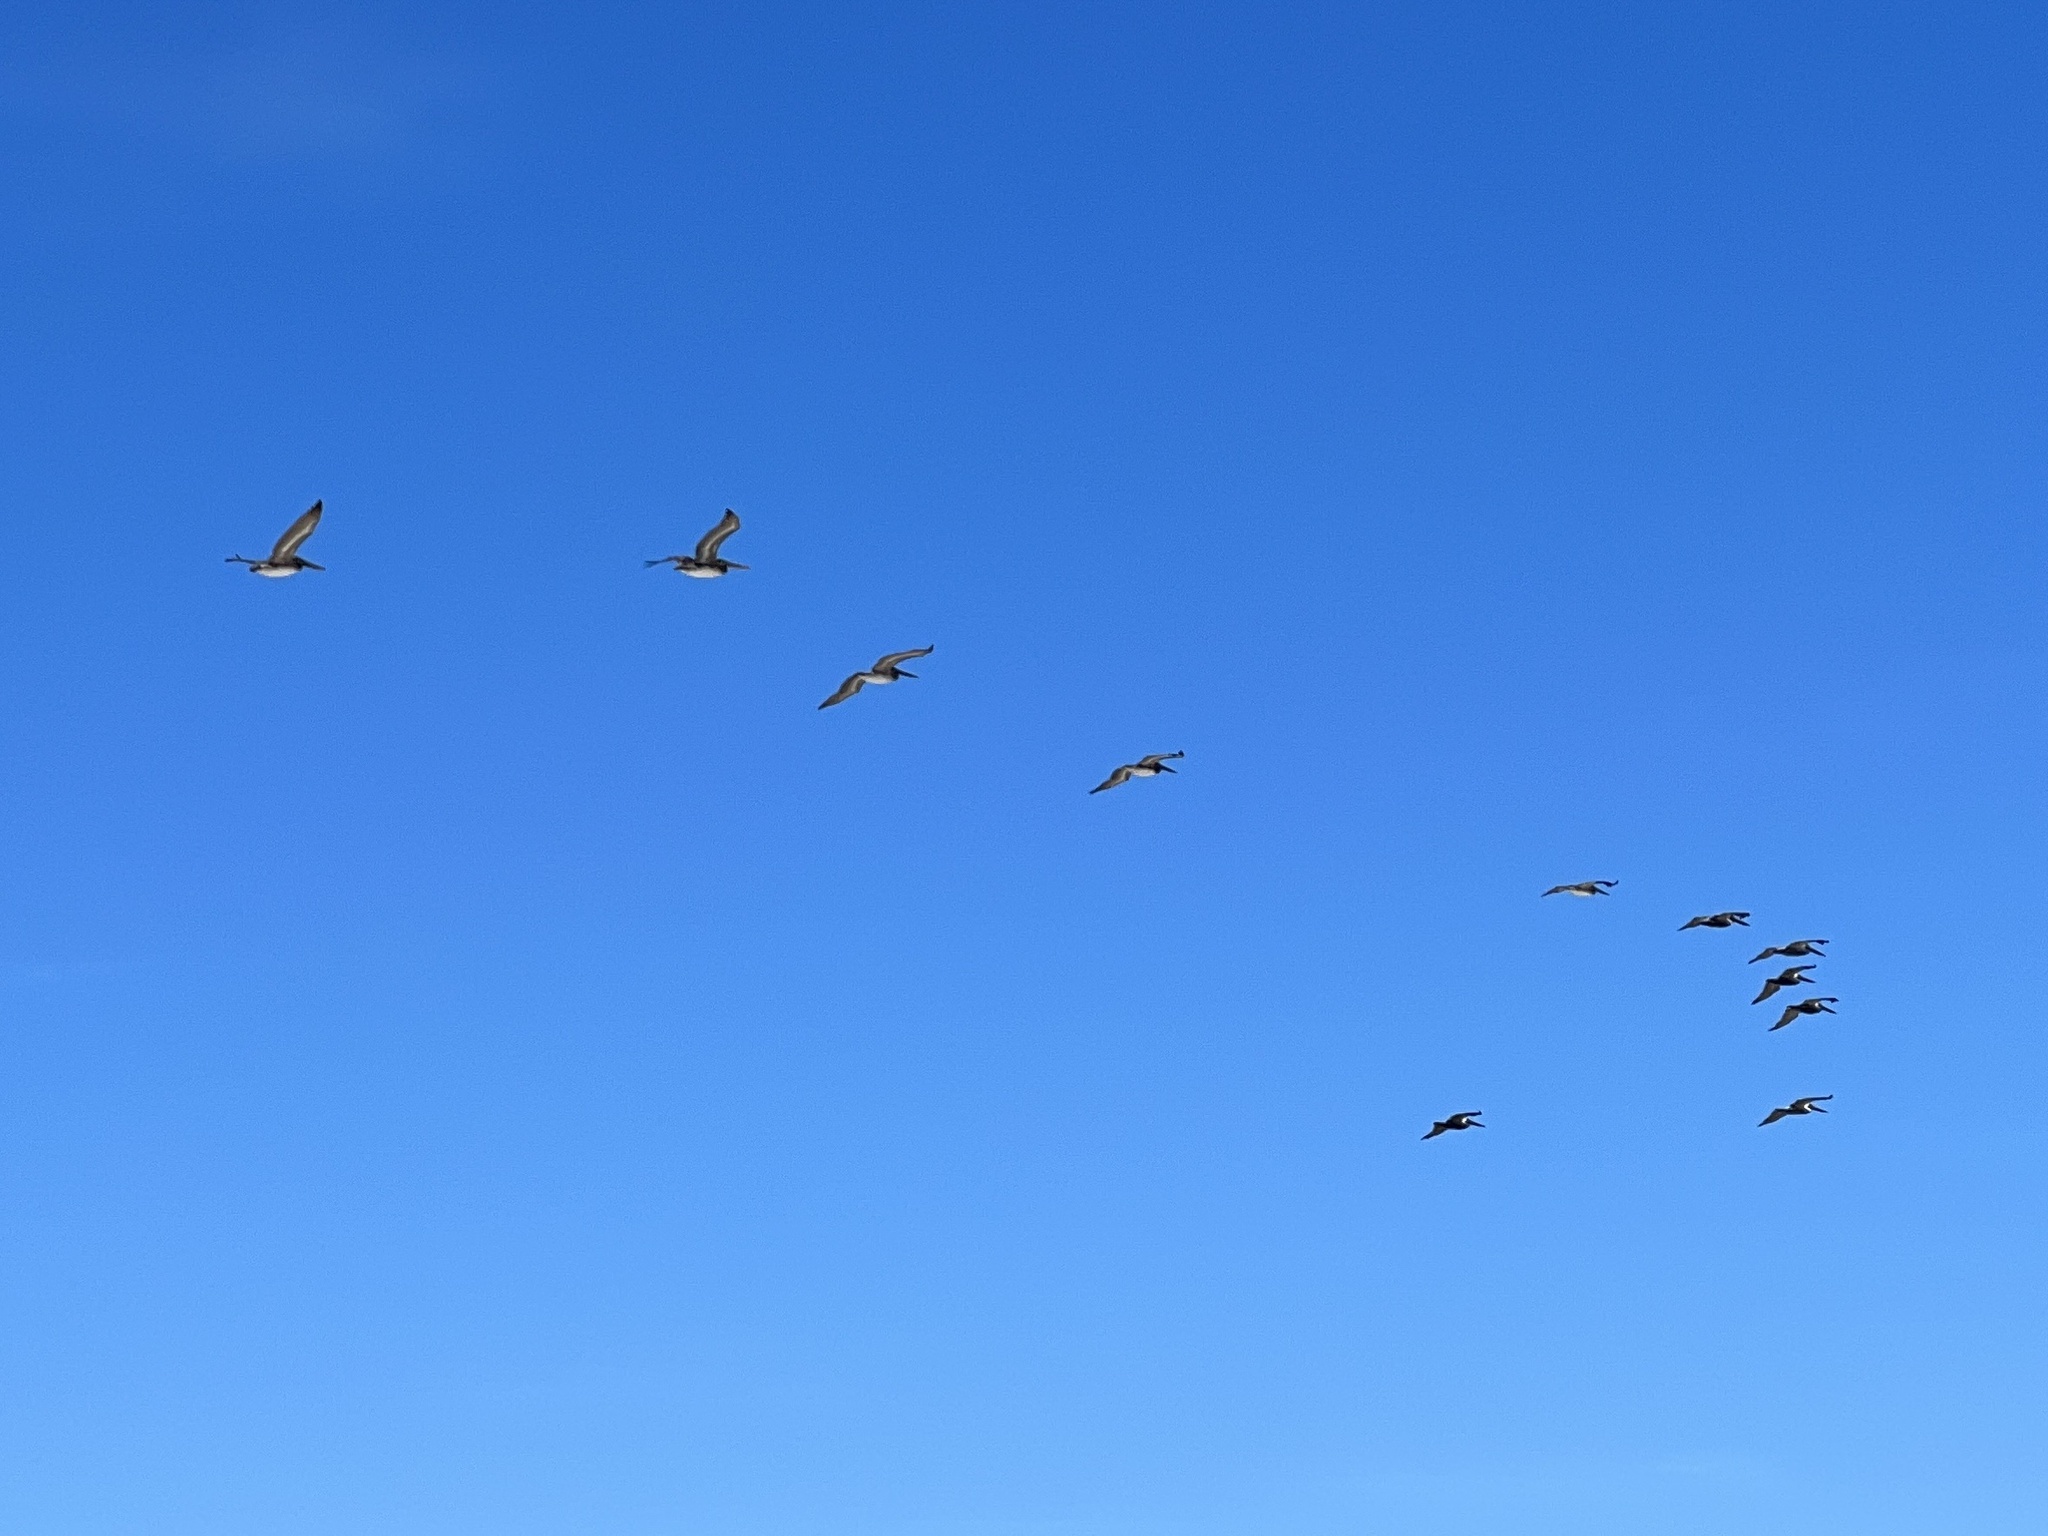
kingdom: Animalia
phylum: Chordata
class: Aves
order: Pelecaniformes
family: Pelecanidae
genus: Pelecanus
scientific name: Pelecanus occidentalis
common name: Brown pelican
